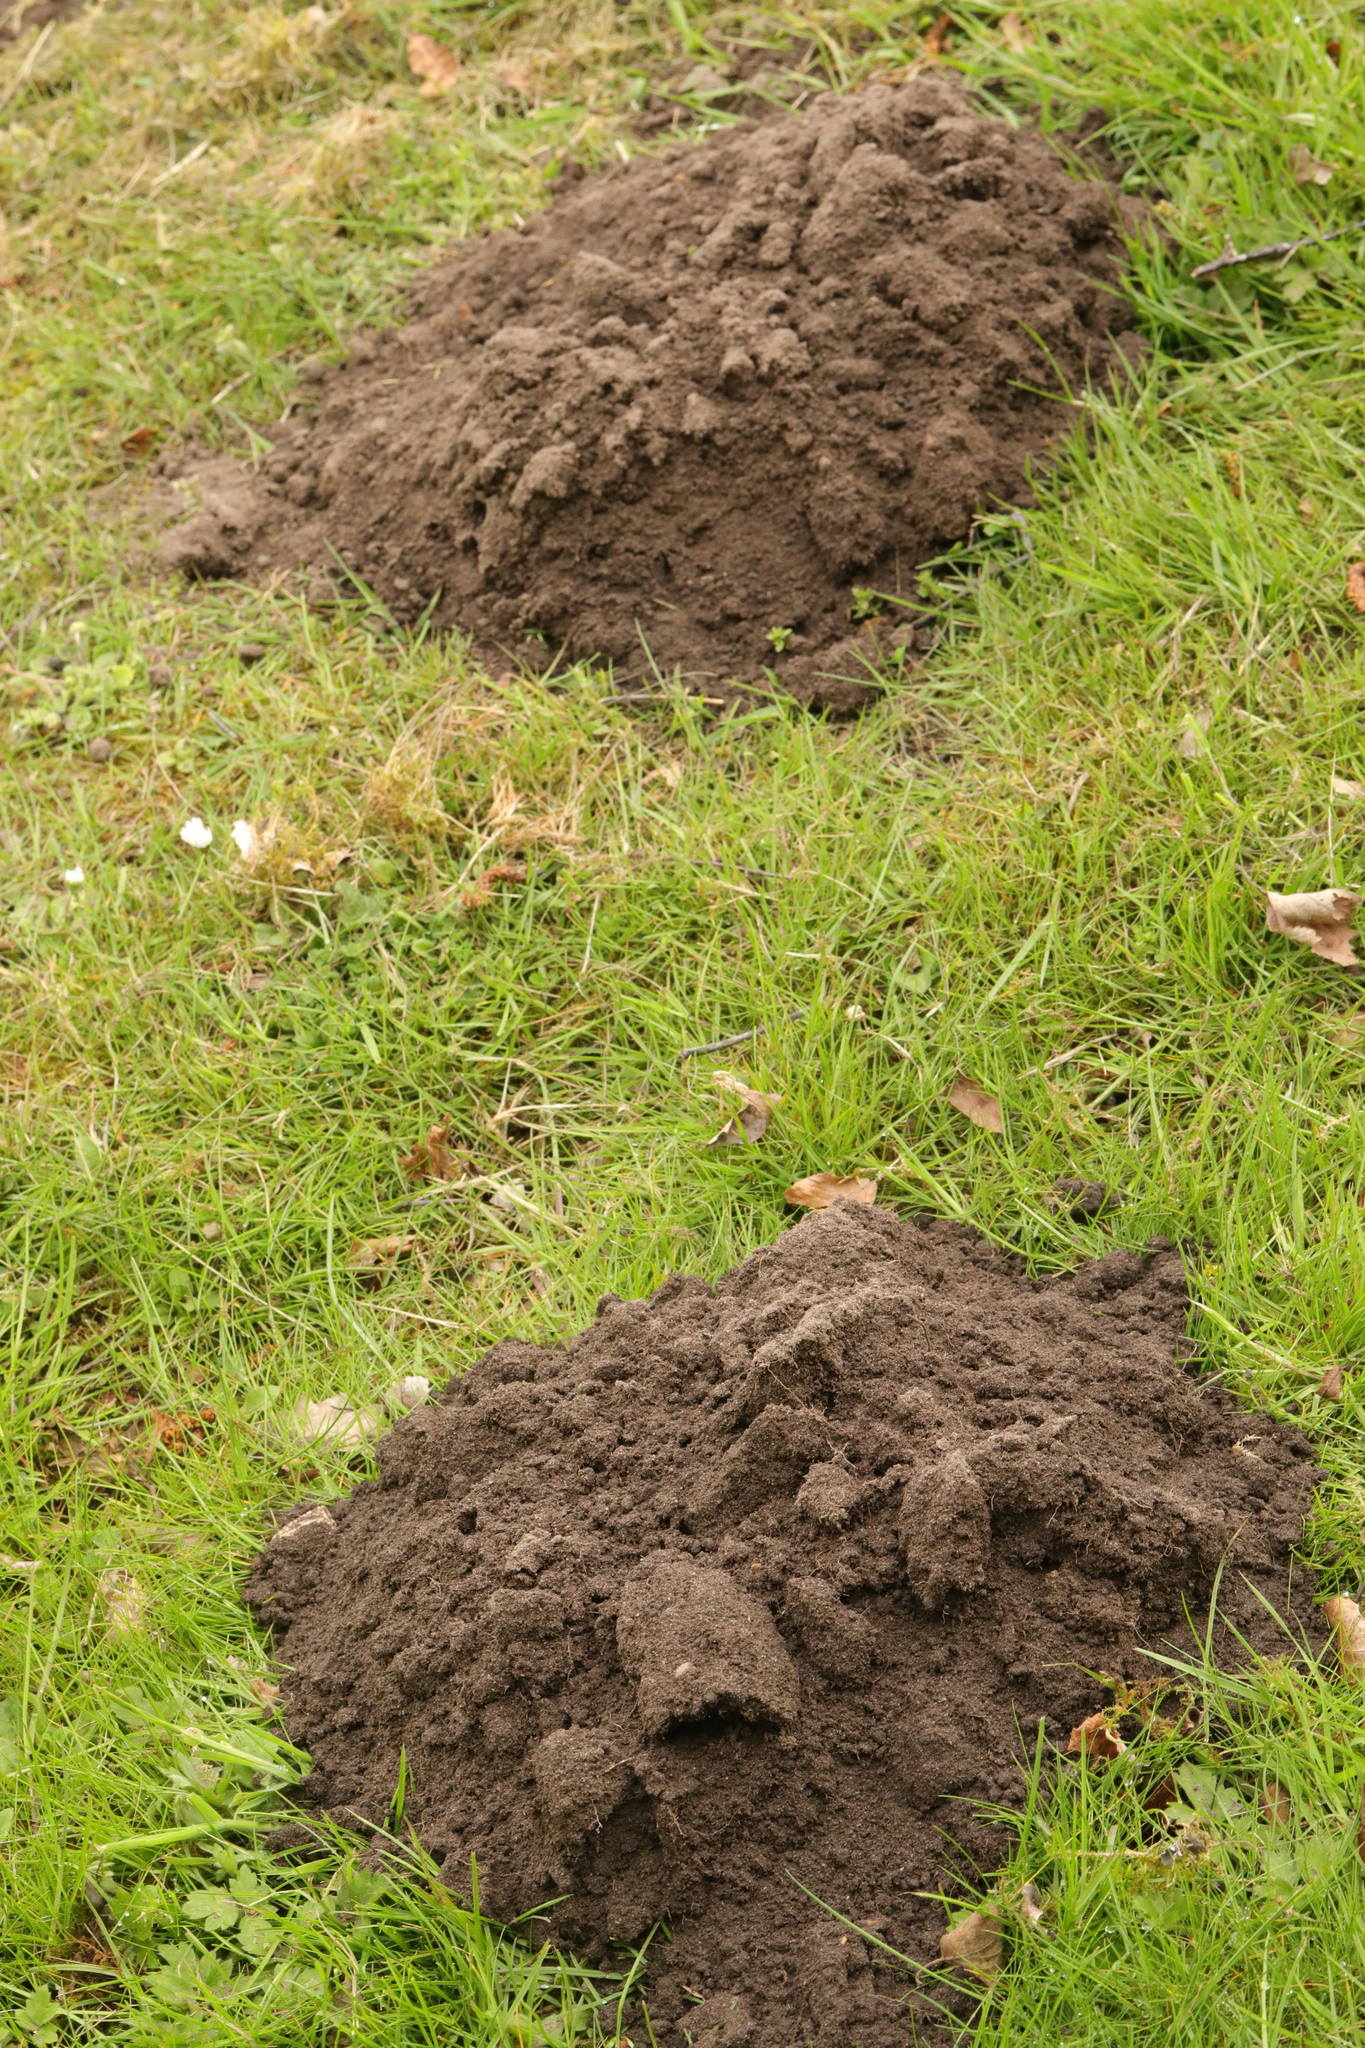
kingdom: Animalia
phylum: Chordata
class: Mammalia
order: Soricomorpha
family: Talpidae
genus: Talpa
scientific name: Talpa europaea
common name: European mole
